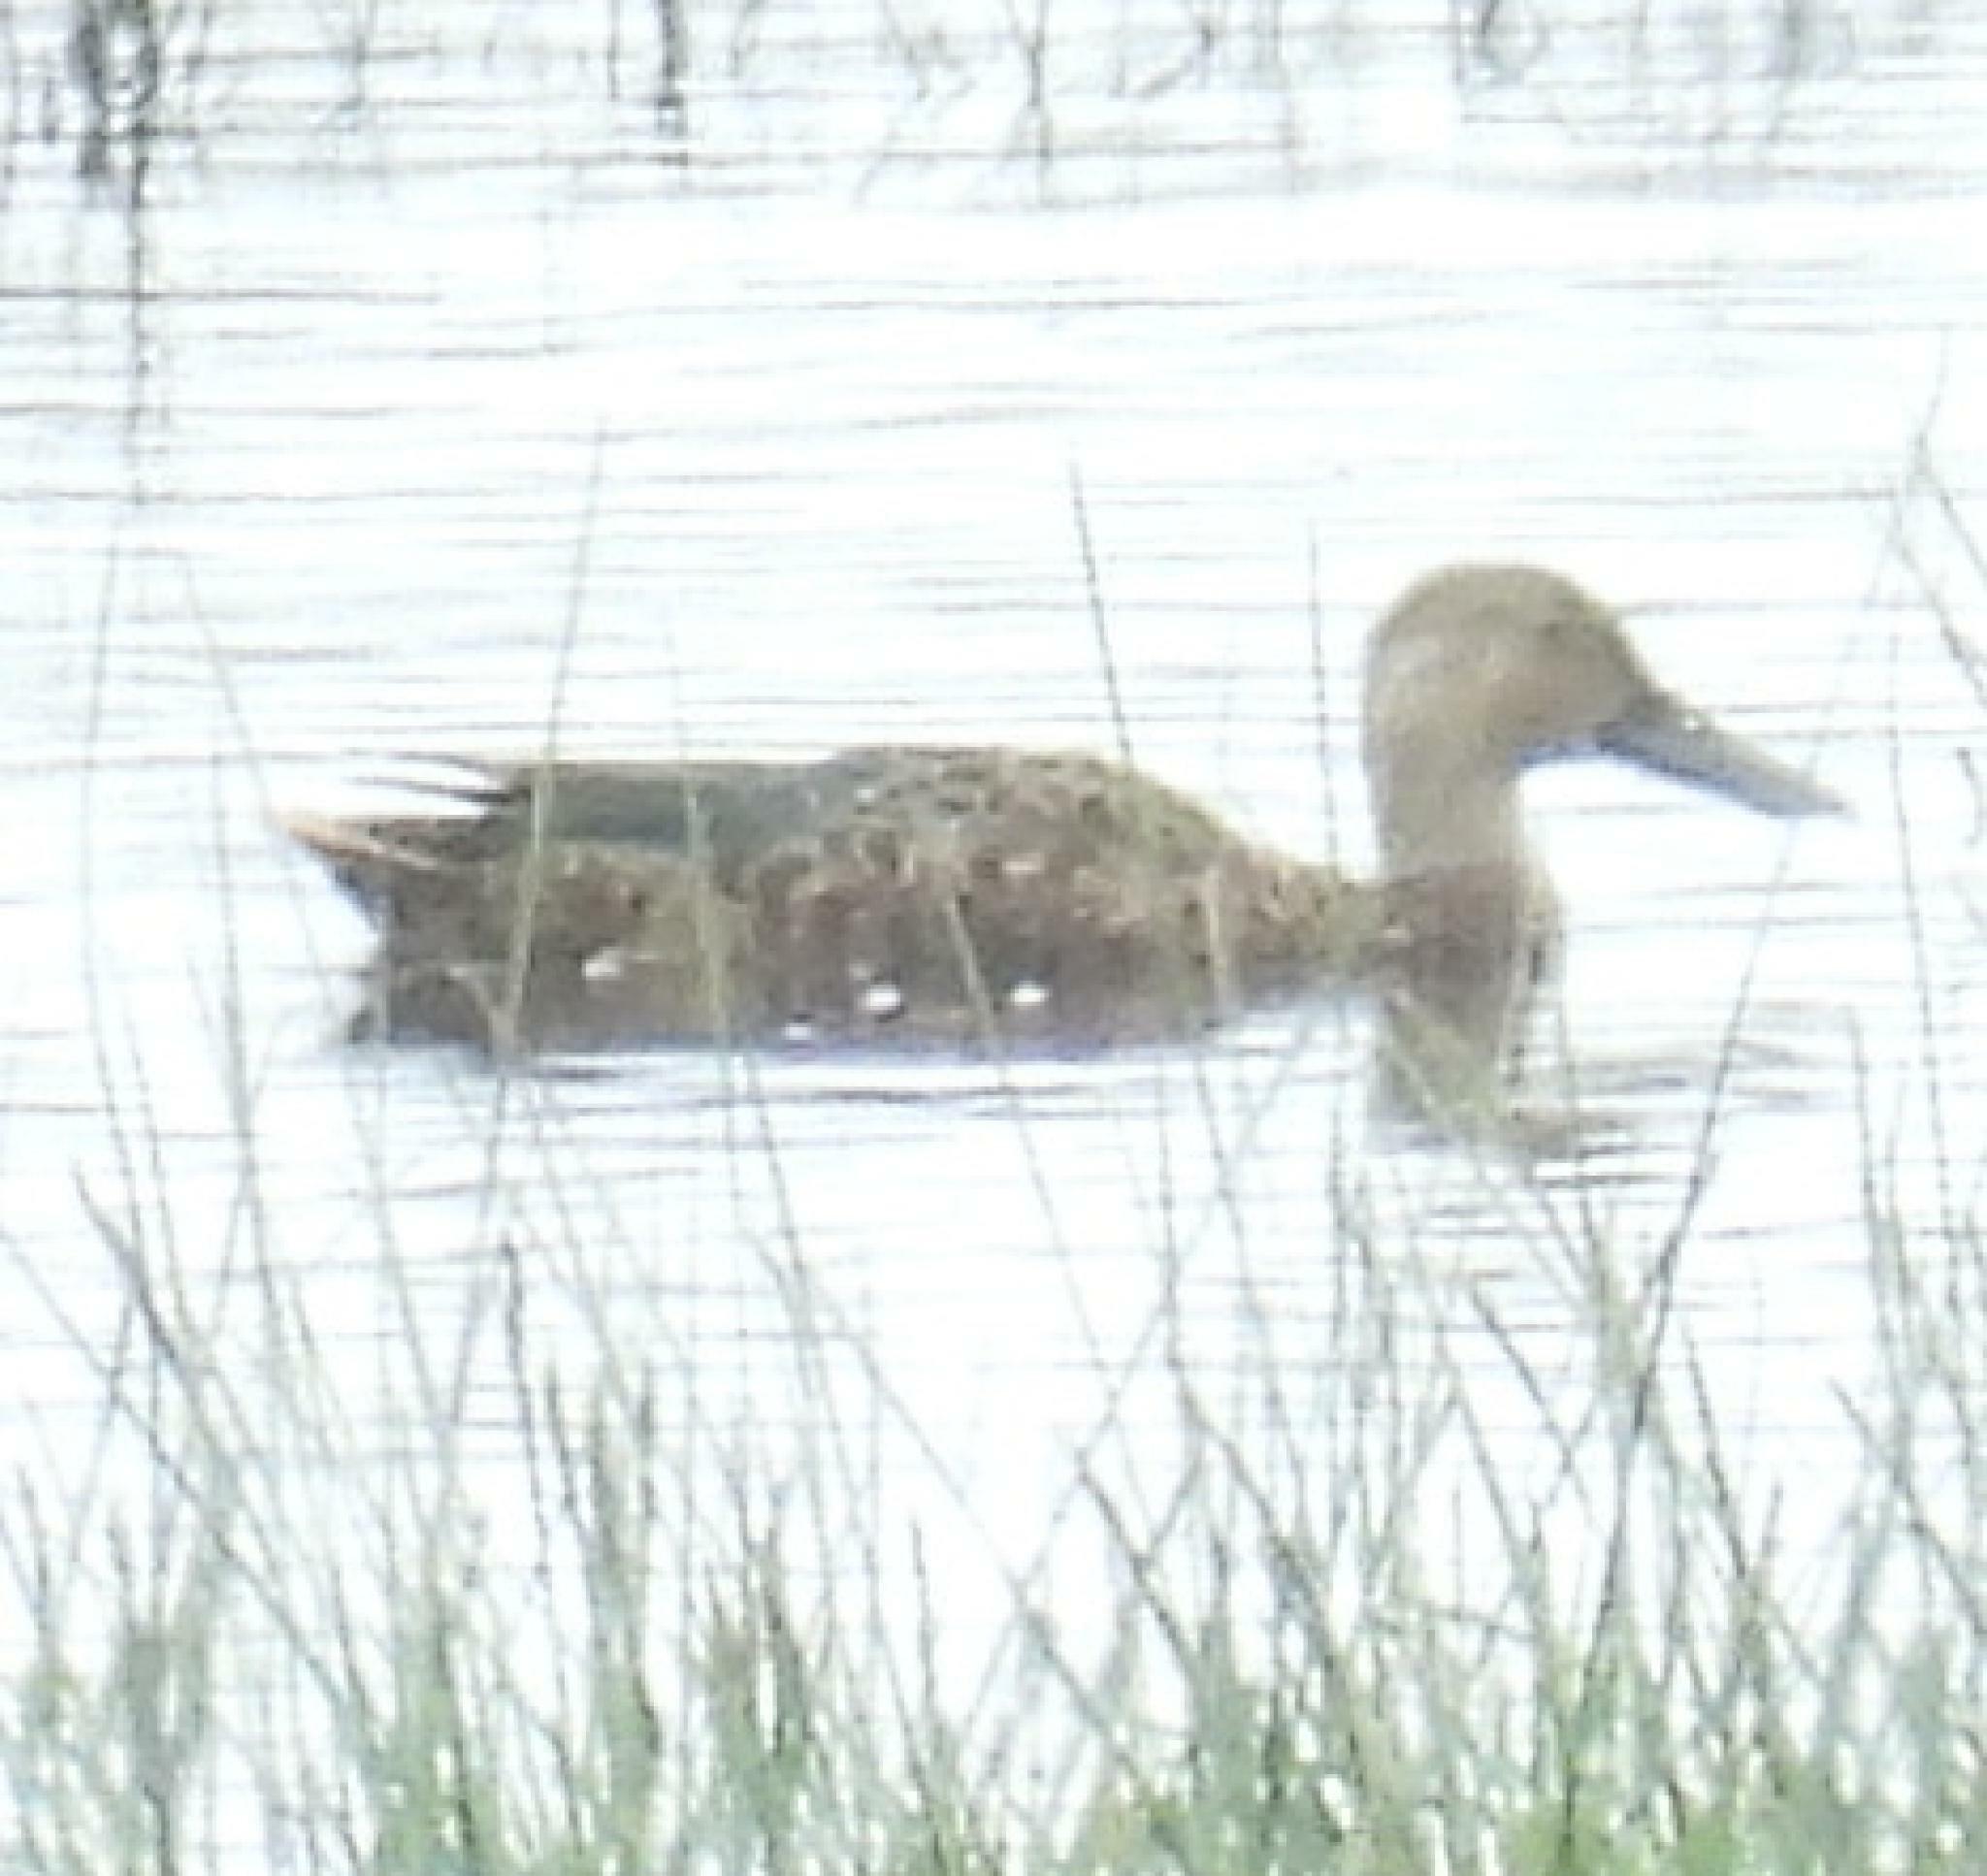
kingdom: Animalia
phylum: Chordata
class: Aves
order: Anseriformes
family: Anatidae
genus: Spatula
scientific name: Spatula smithii
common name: Cape shoveler
